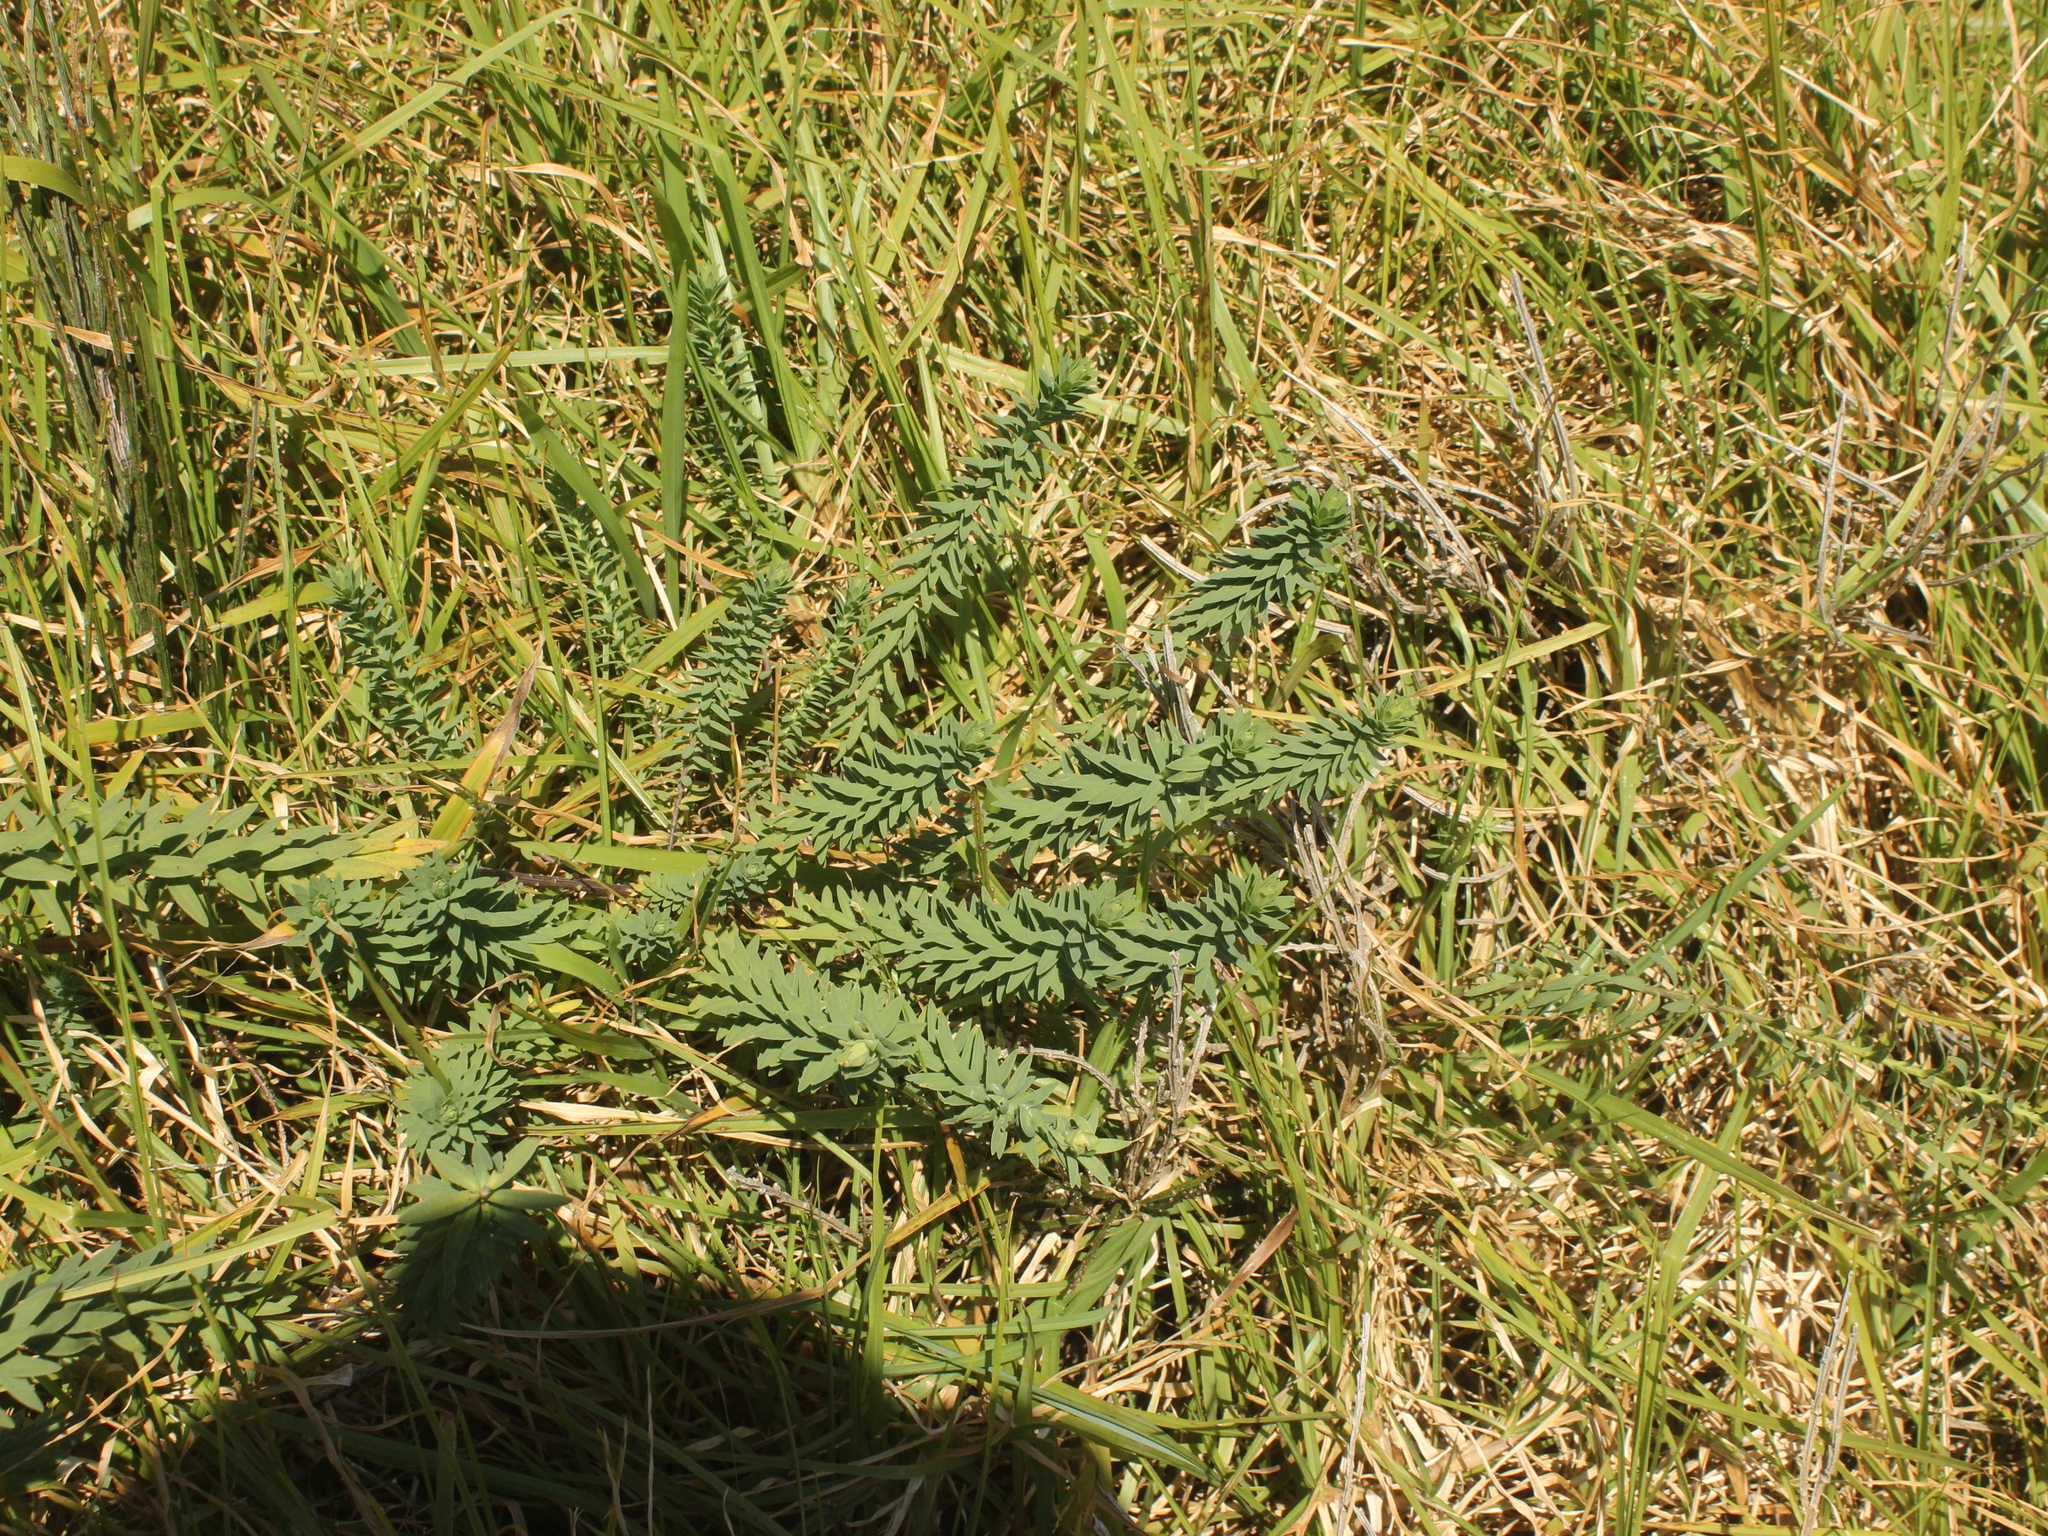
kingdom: Plantae
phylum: Tracheophyta
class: Magnoliopsida
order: Malpighiales
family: Linaceae
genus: Linum
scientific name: Linum monogynum
